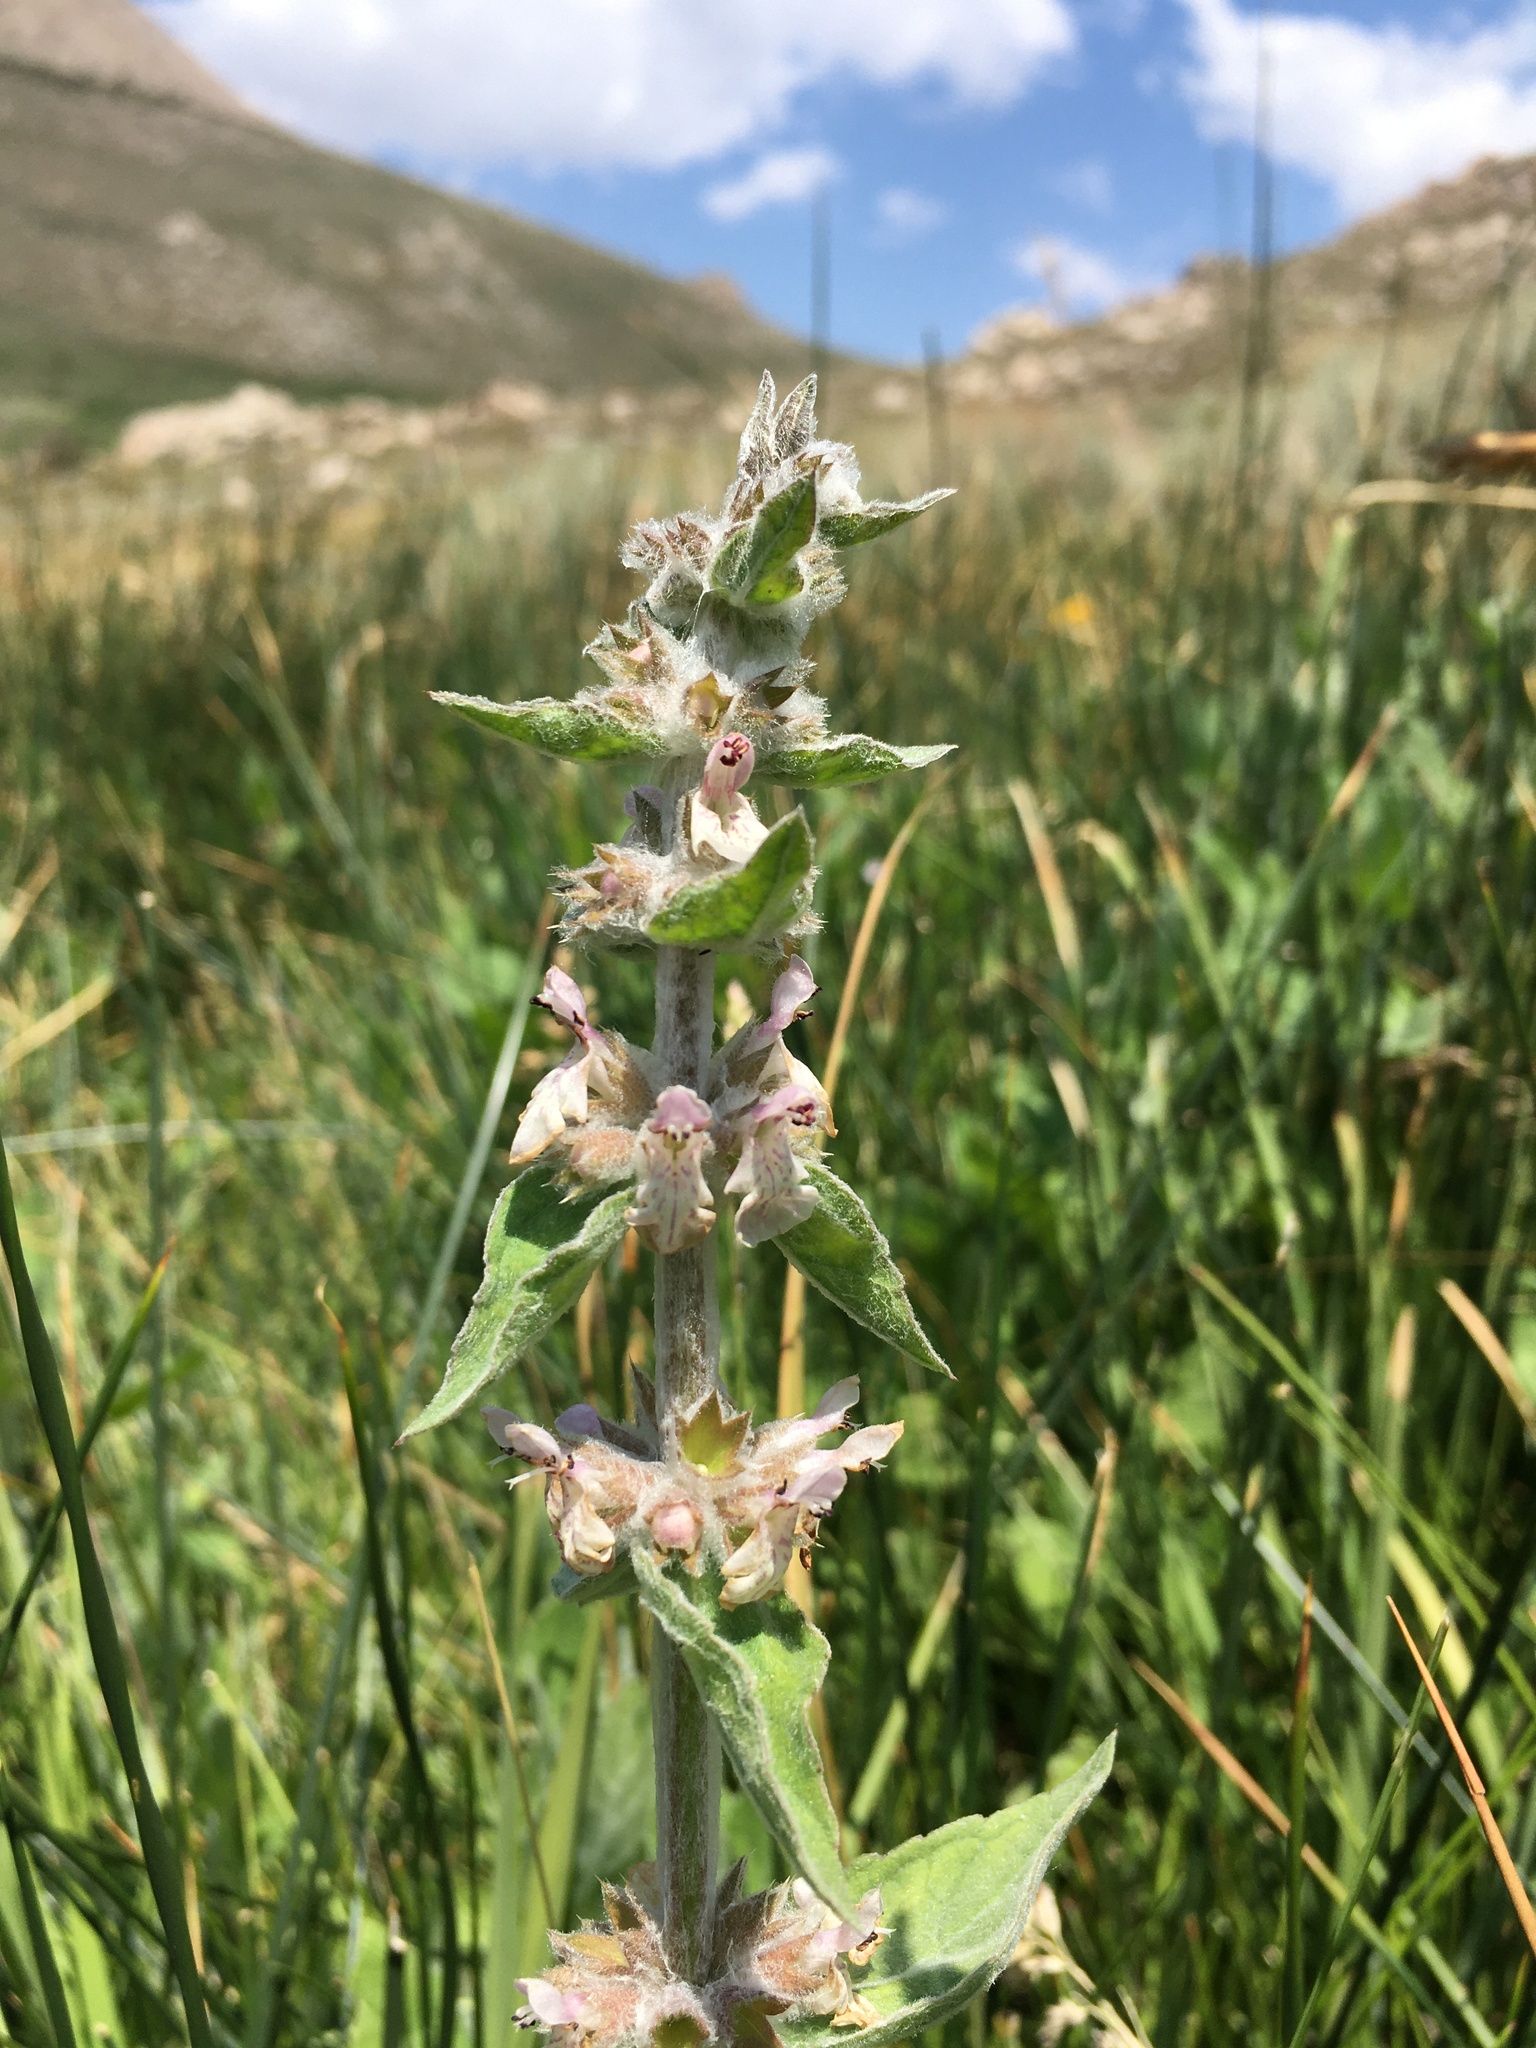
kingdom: Plantae
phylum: Tracheophyta
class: Magnoliopsida
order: Lamiales
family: Lamiaceae
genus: Stachys
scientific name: Stachys albens
